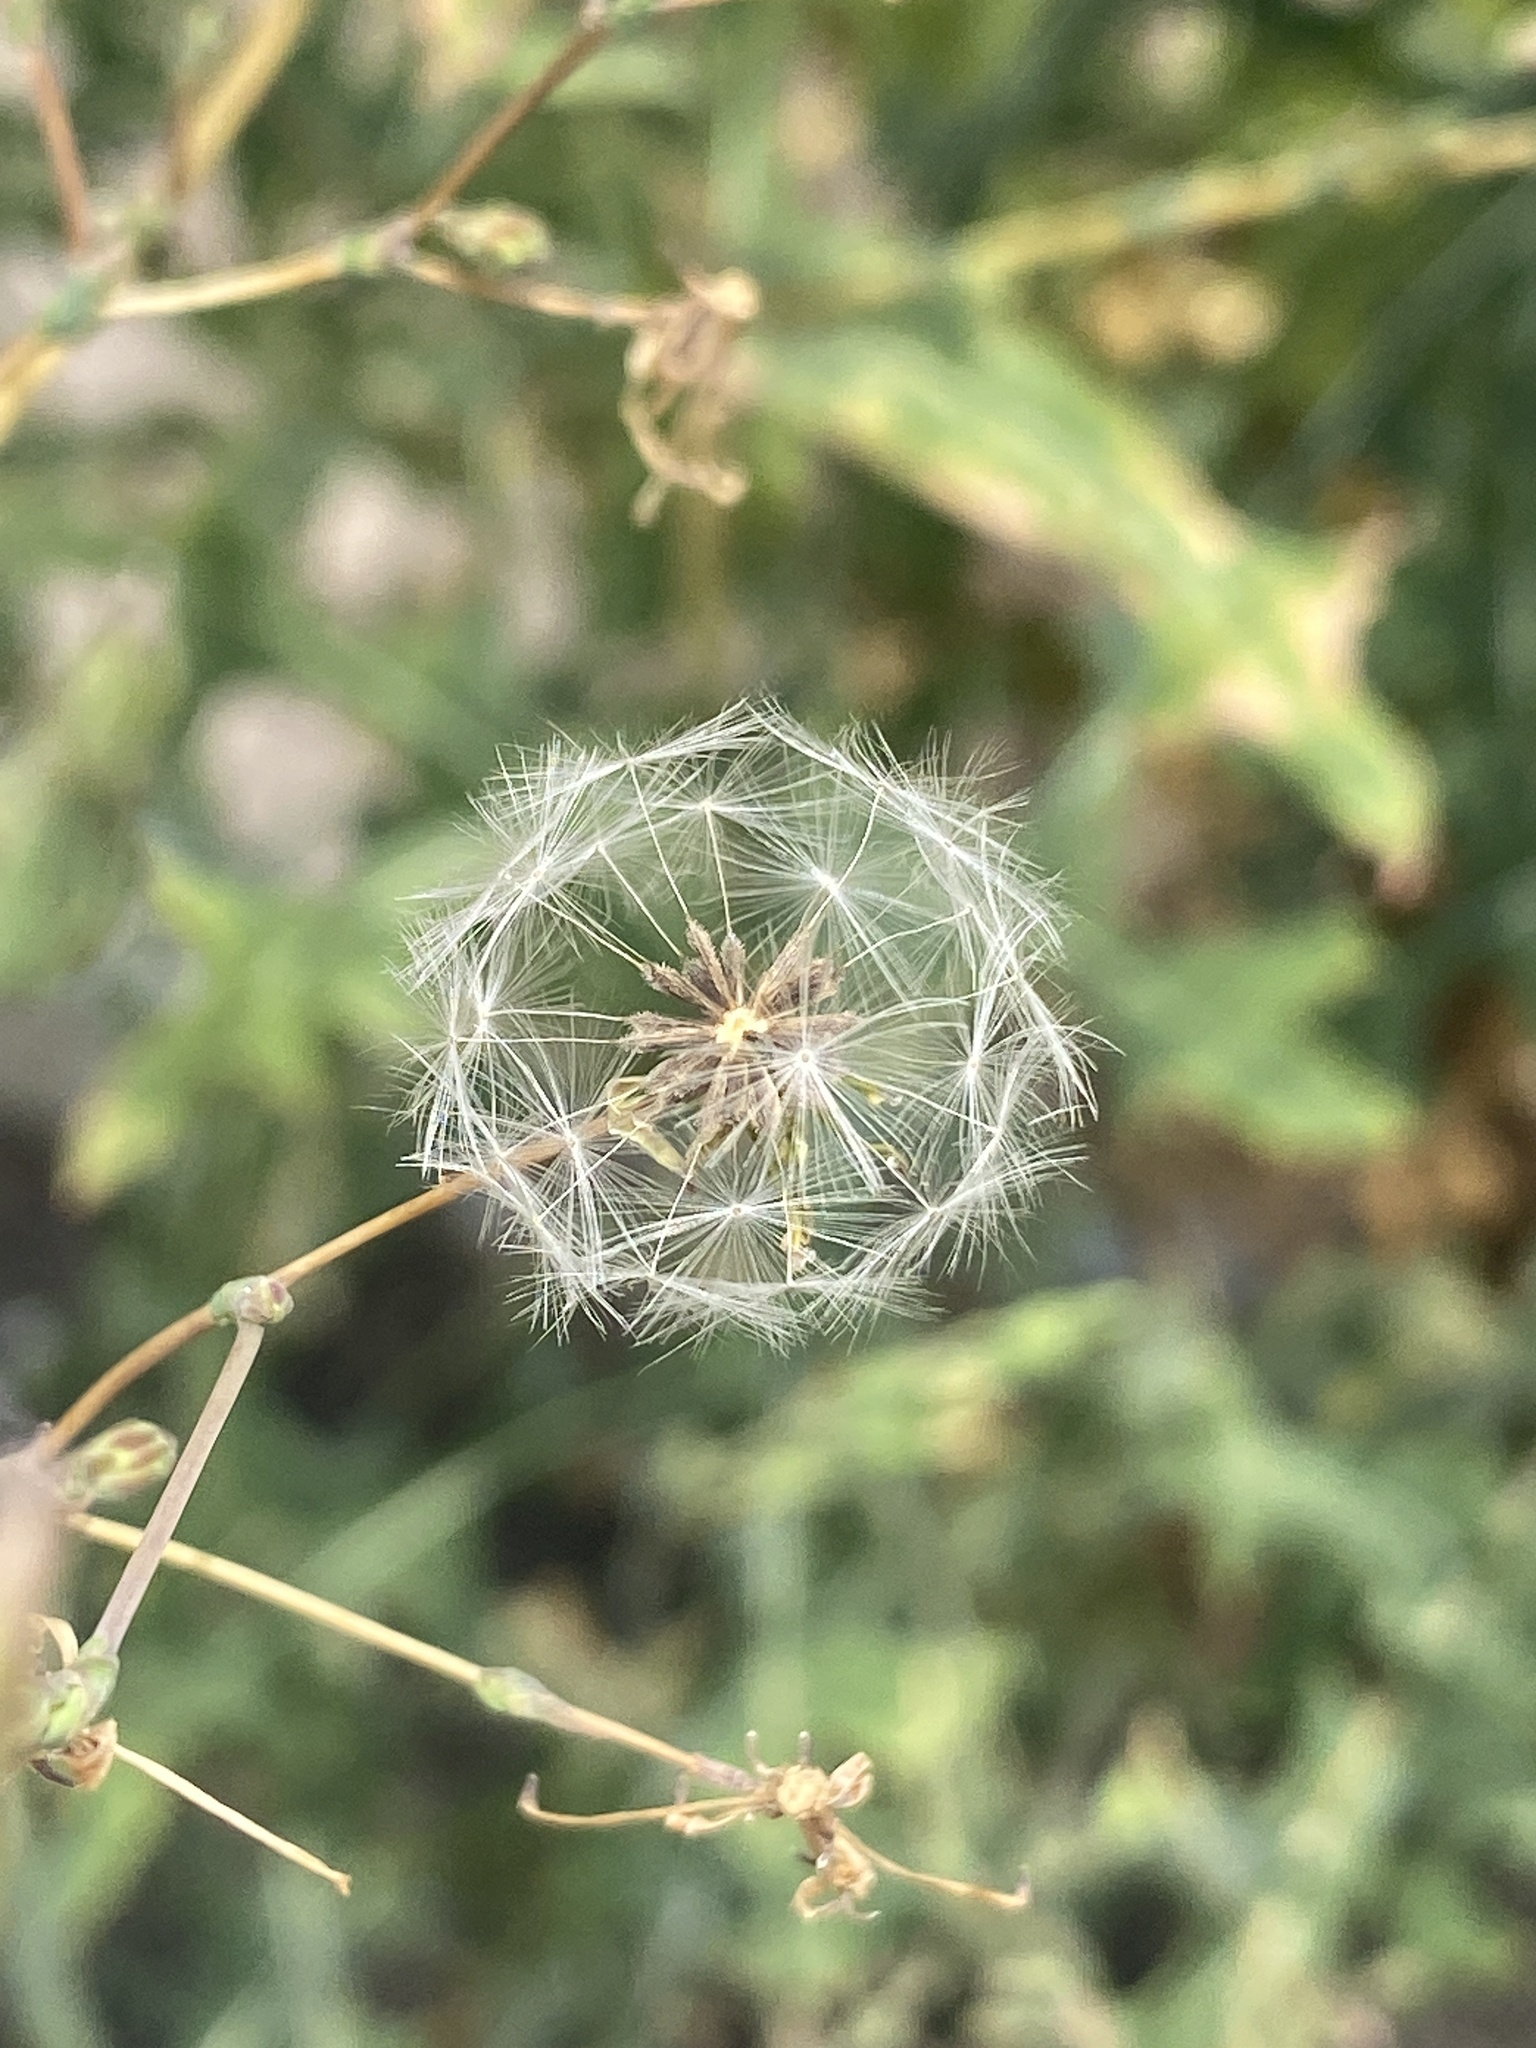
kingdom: Plantae
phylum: Tracheophyta
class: Magnoliopsida
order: Asterales
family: Asteraceae
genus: Lactuca
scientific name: Lactuca serriola
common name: Prickly lettuce
